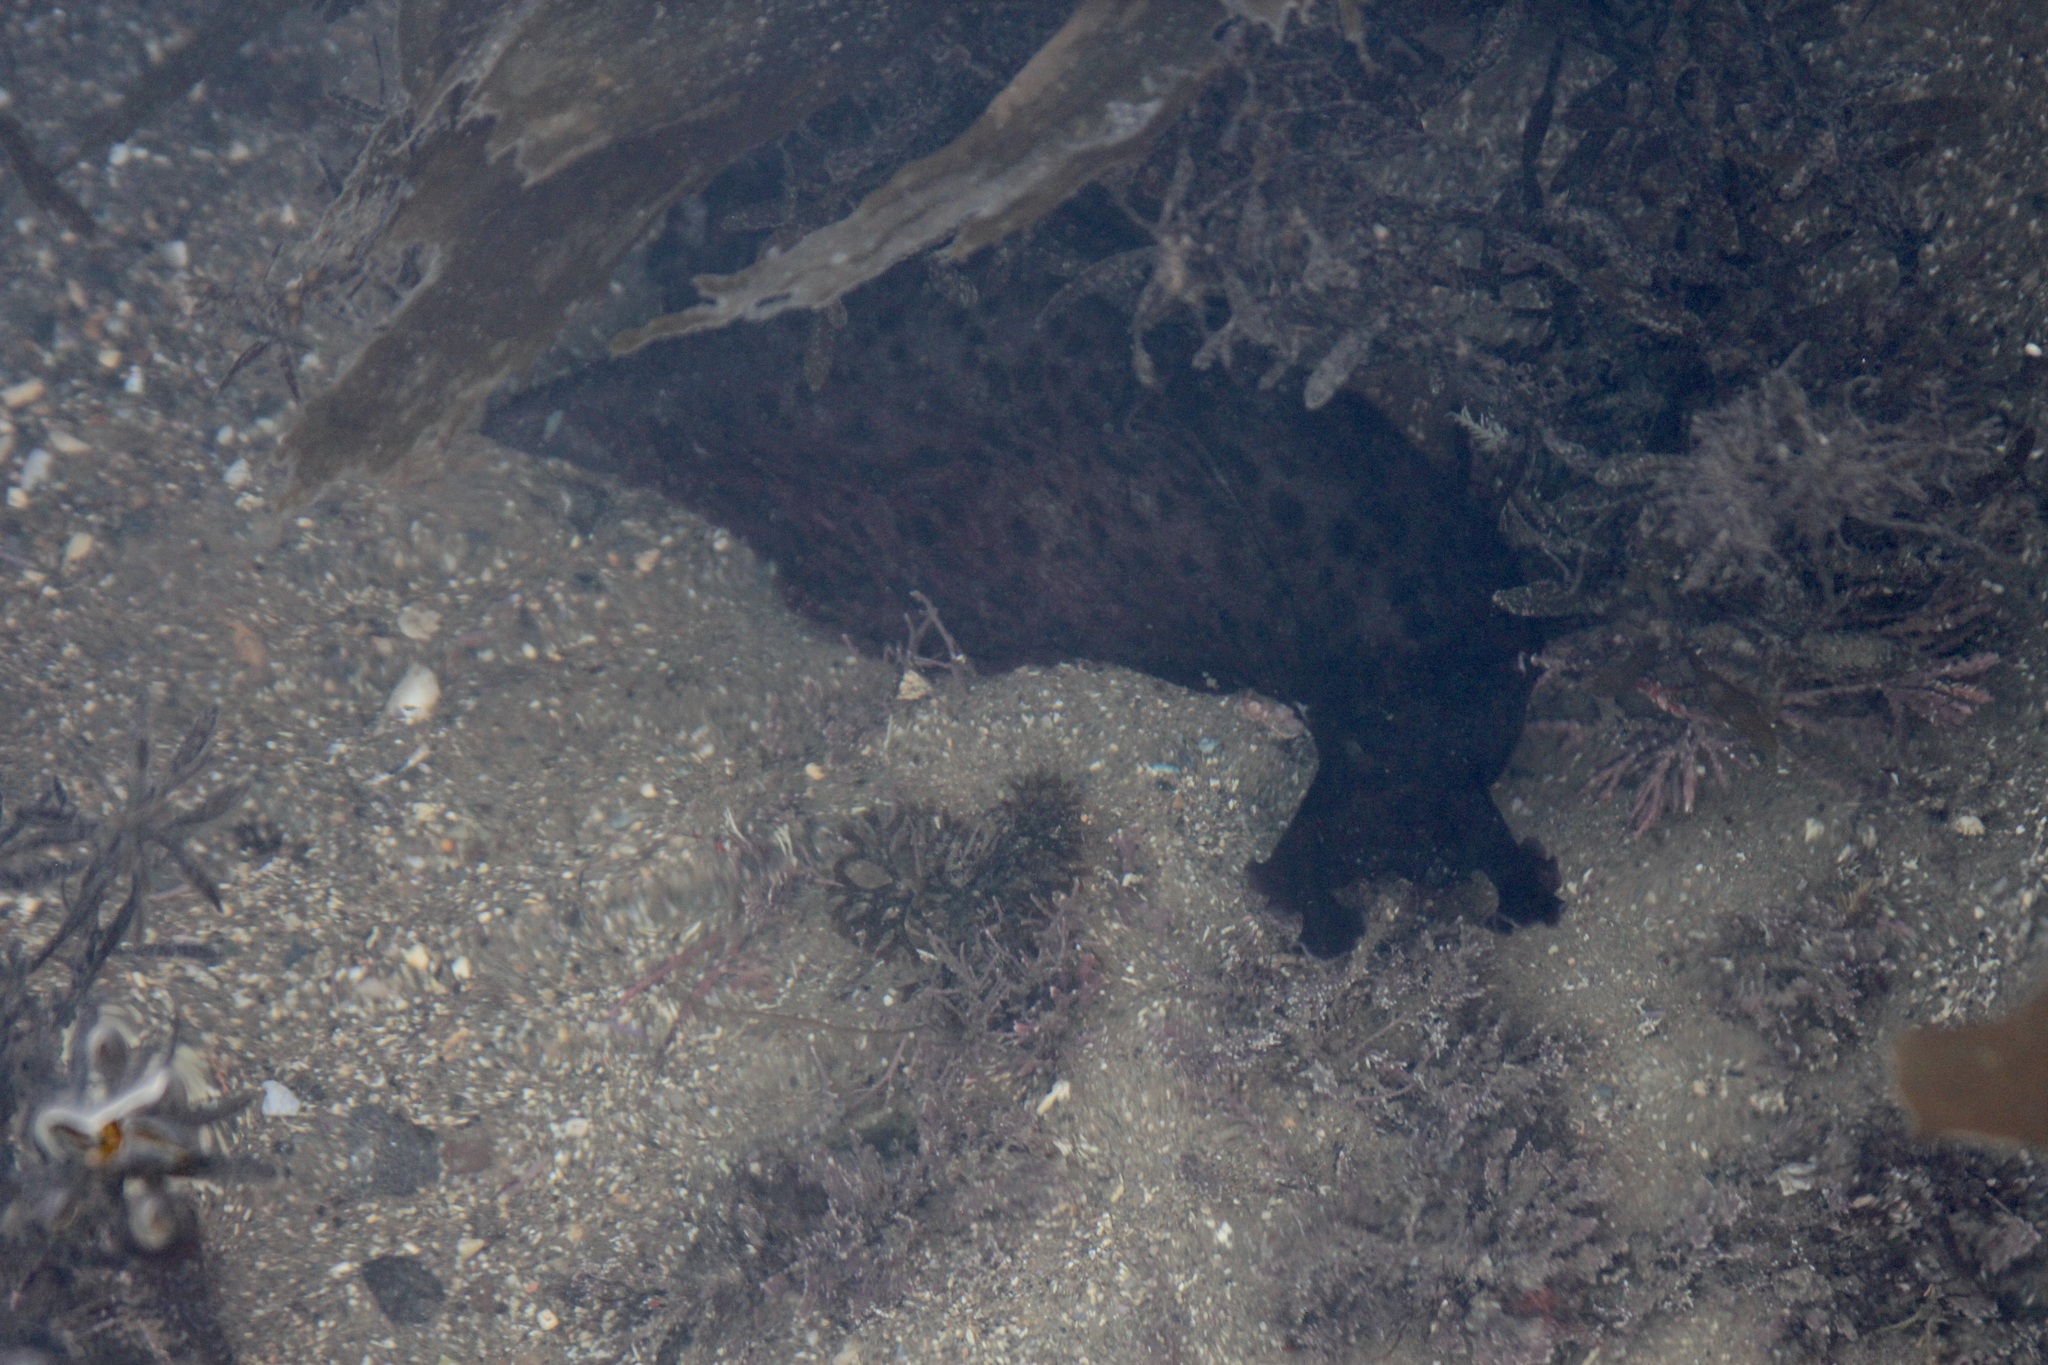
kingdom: Animalia
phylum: Mollusca
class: Gastropoda
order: Aplysiida
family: Aplysiidae
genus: Aplysia
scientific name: Aplysia californica
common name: California seahare
